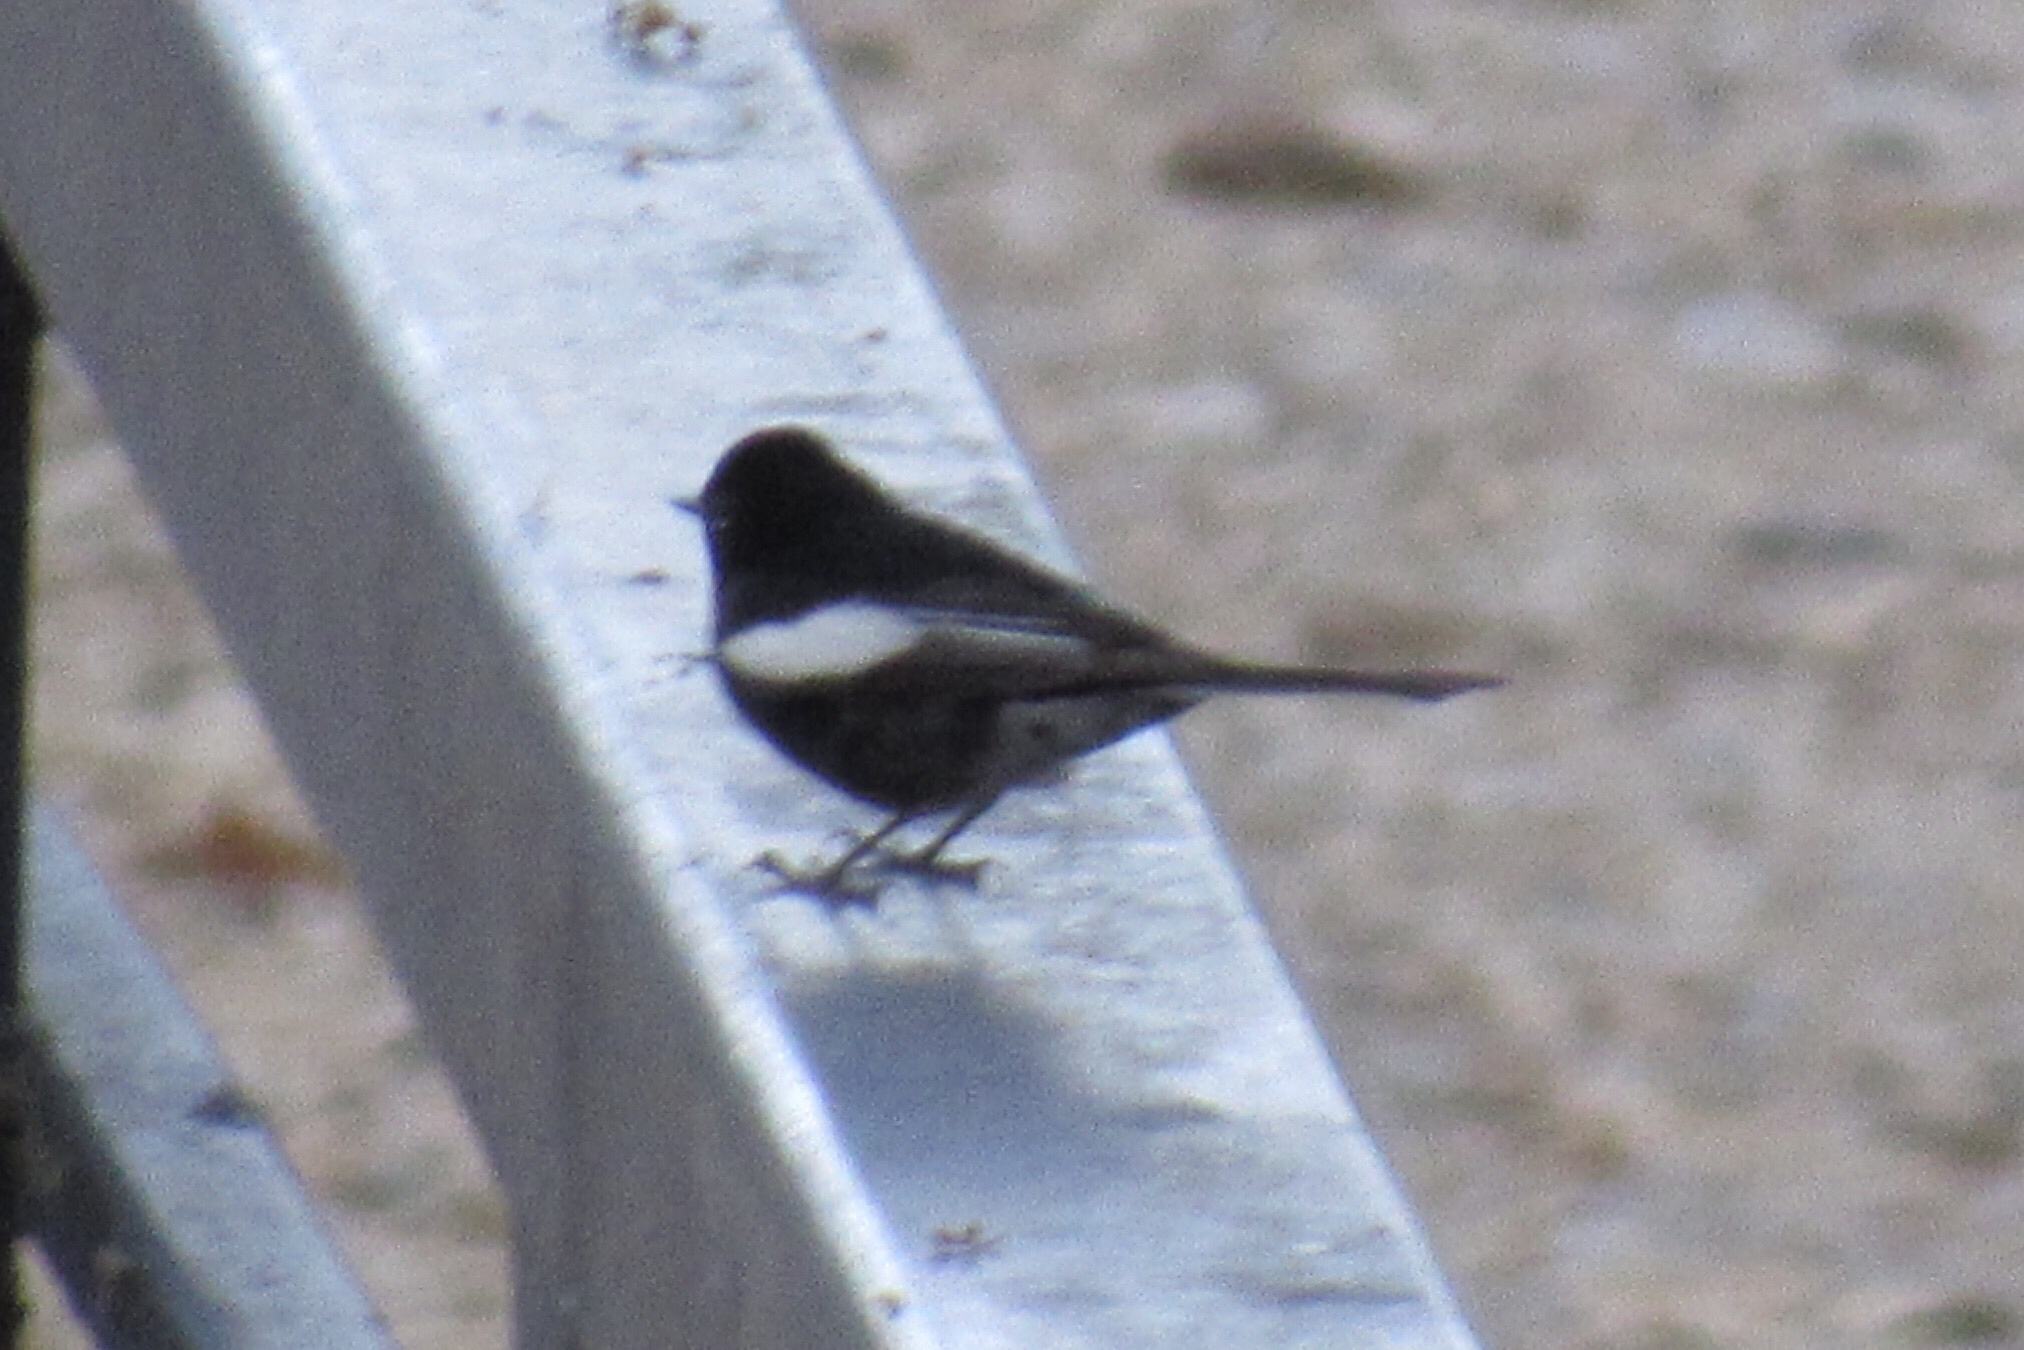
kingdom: Animalia
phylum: Chordata
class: Aves
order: Passeriformes
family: Parulidae
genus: Myioborus
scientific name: Myioborus pictus
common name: Painted whitestart
